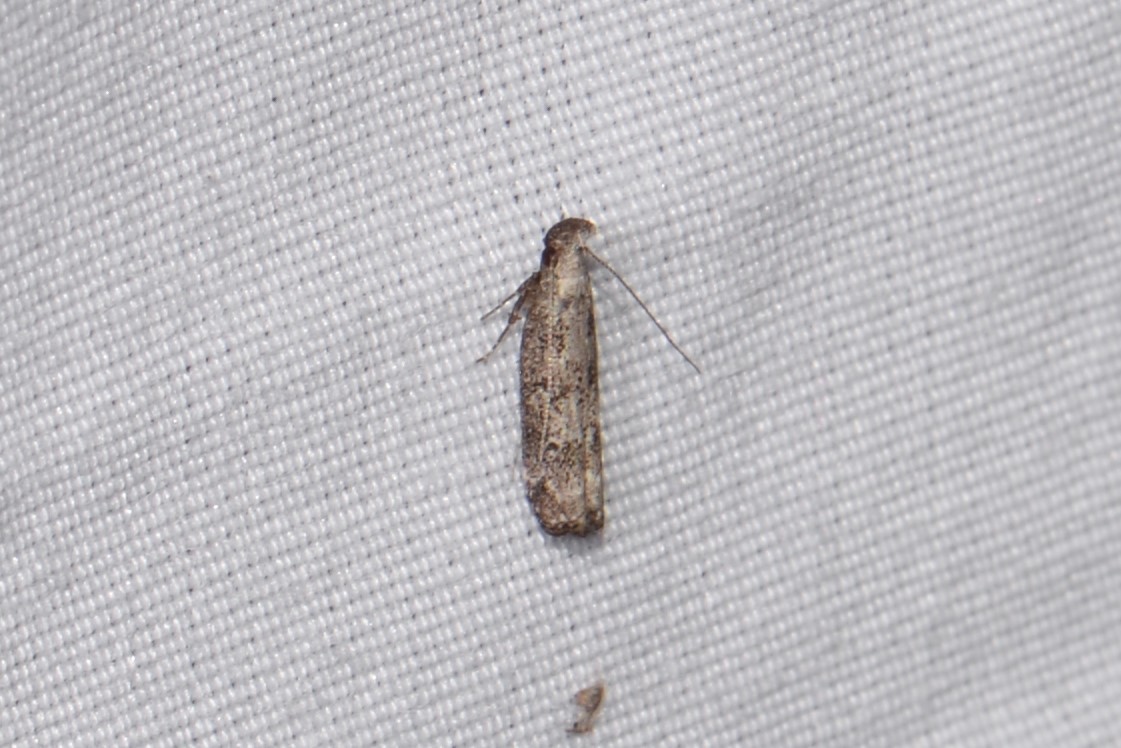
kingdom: Animalia
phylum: Arthropoda
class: Insecta
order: Lepidoptera
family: Gelechiidae
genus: Dichomeris
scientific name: Dichomeris inversella
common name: Inverse dichomeris moth
